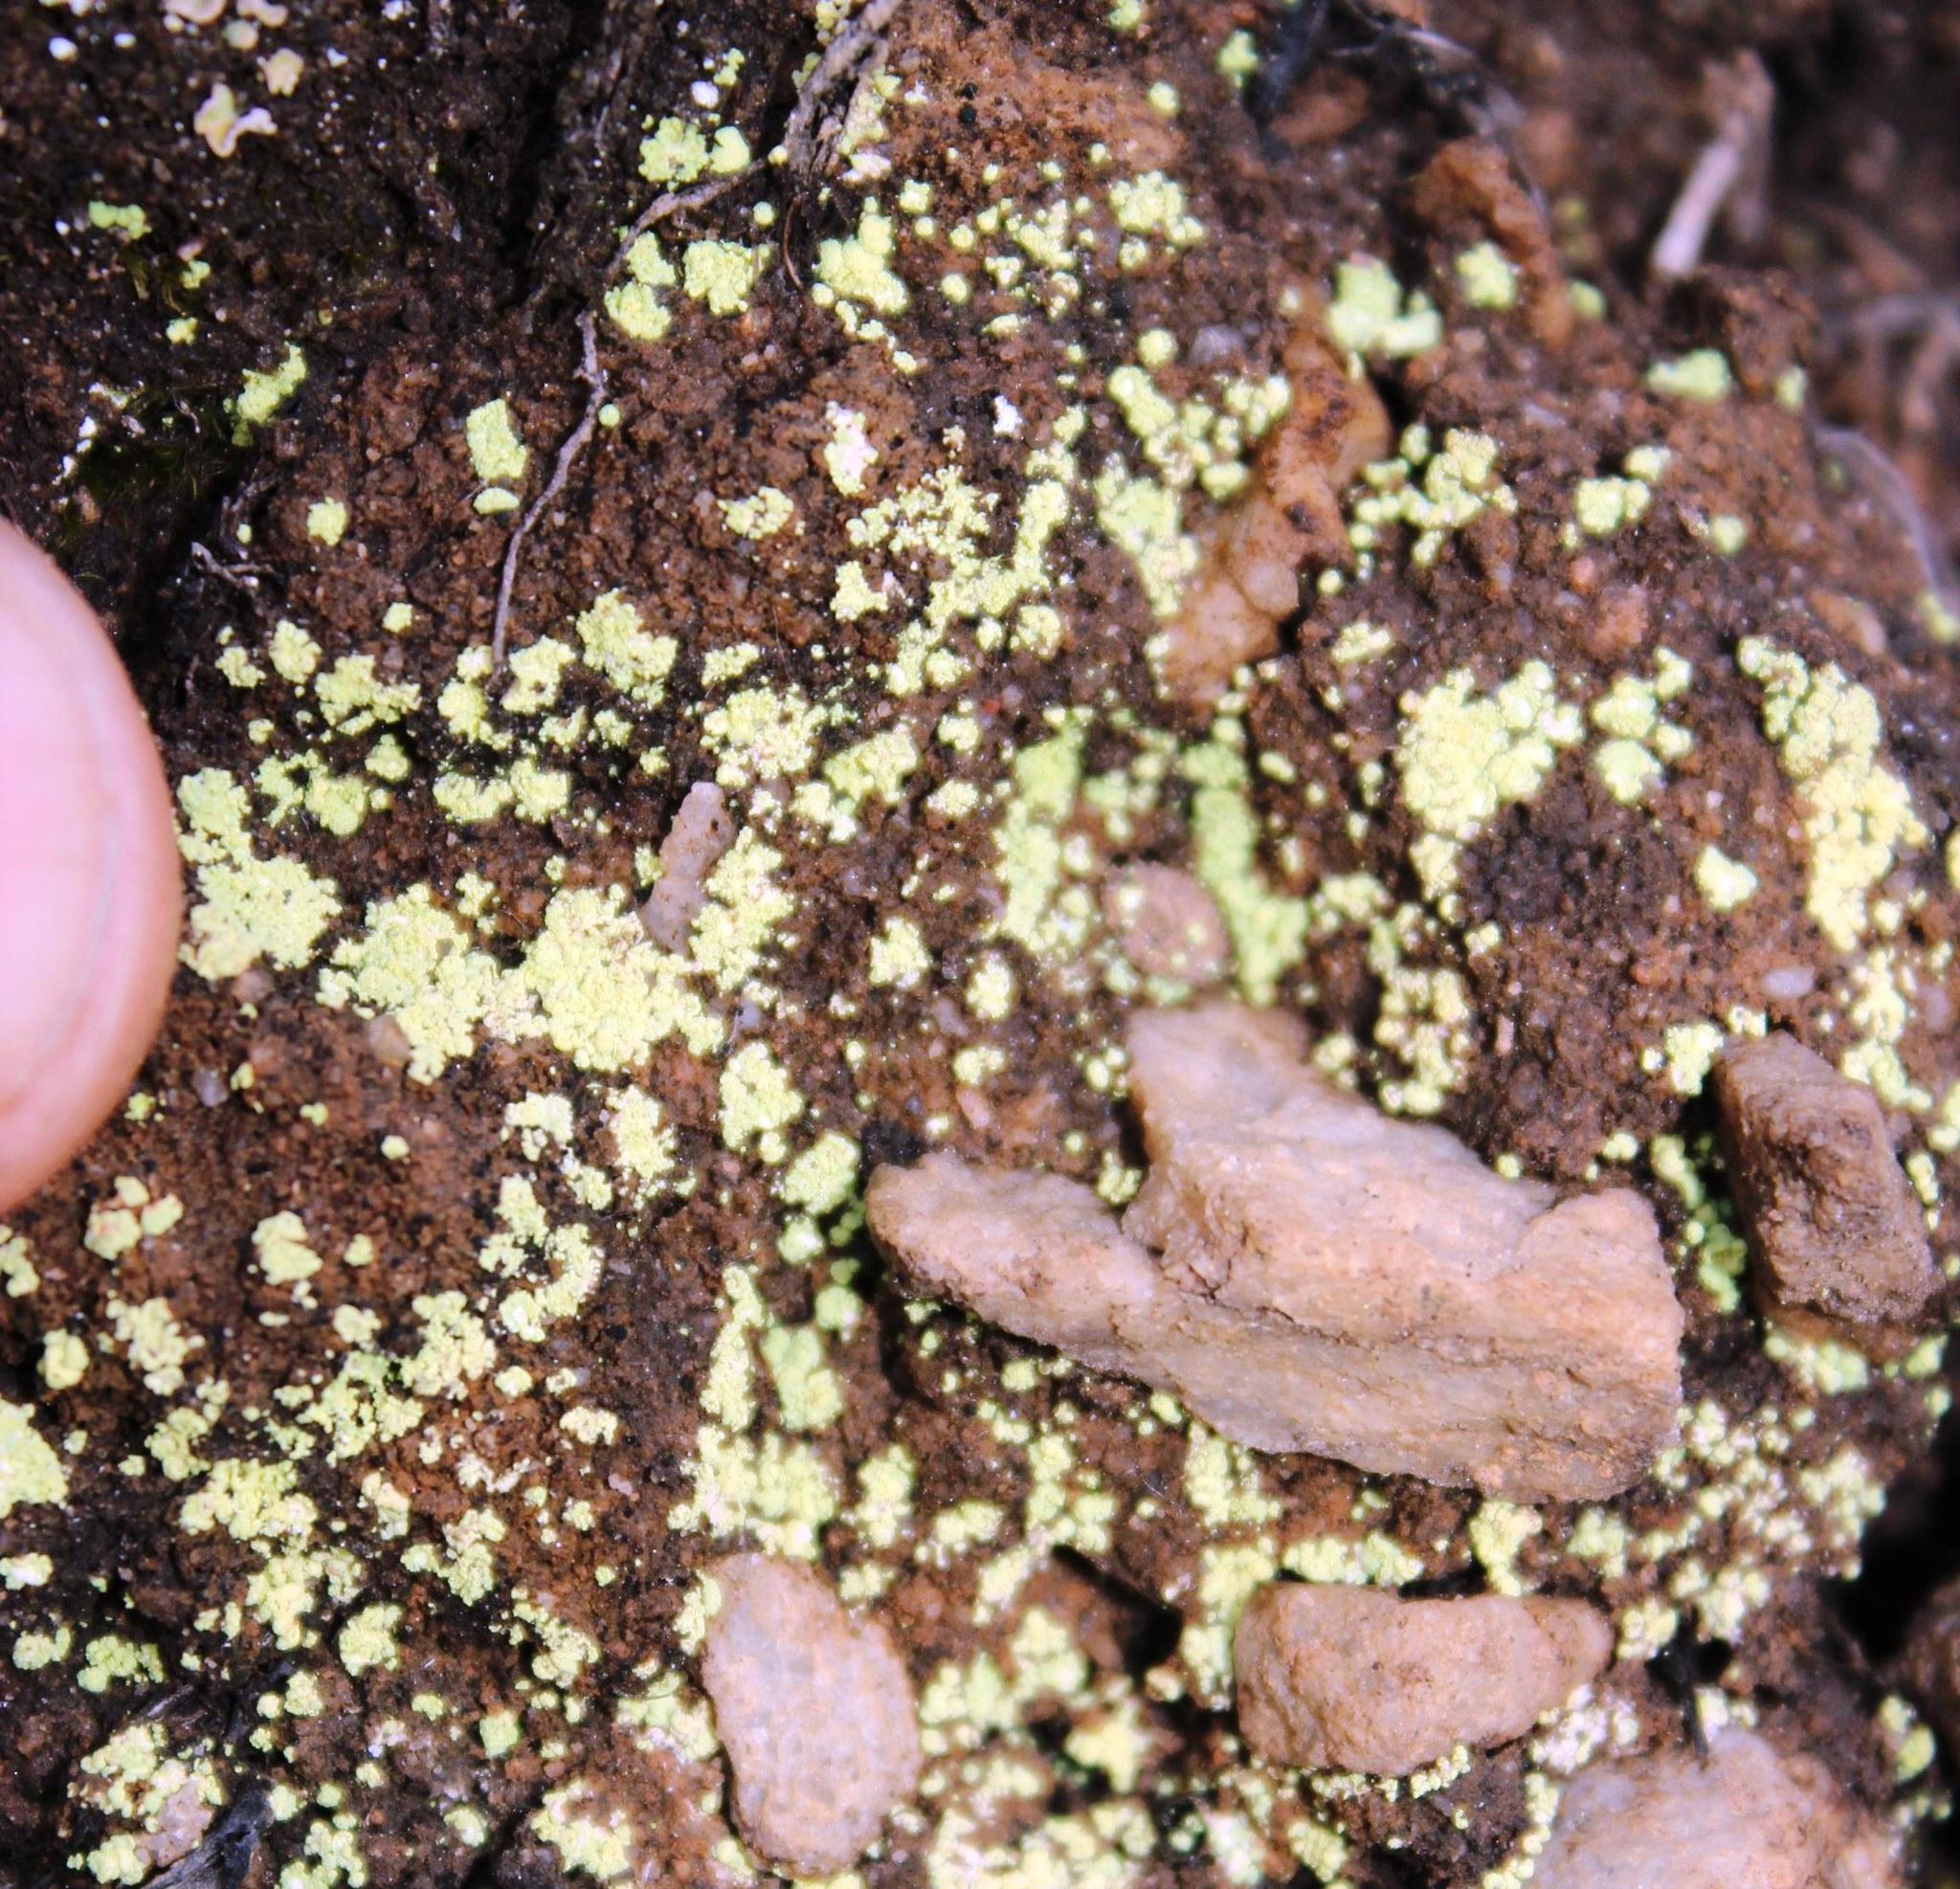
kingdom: Fungi
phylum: Ascomycota
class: Lecanoromycetes
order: Umbilicariales
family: Arthrorhaphidaceae
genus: Arthrorhaphis
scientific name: Arthrorhaphis citrinella
